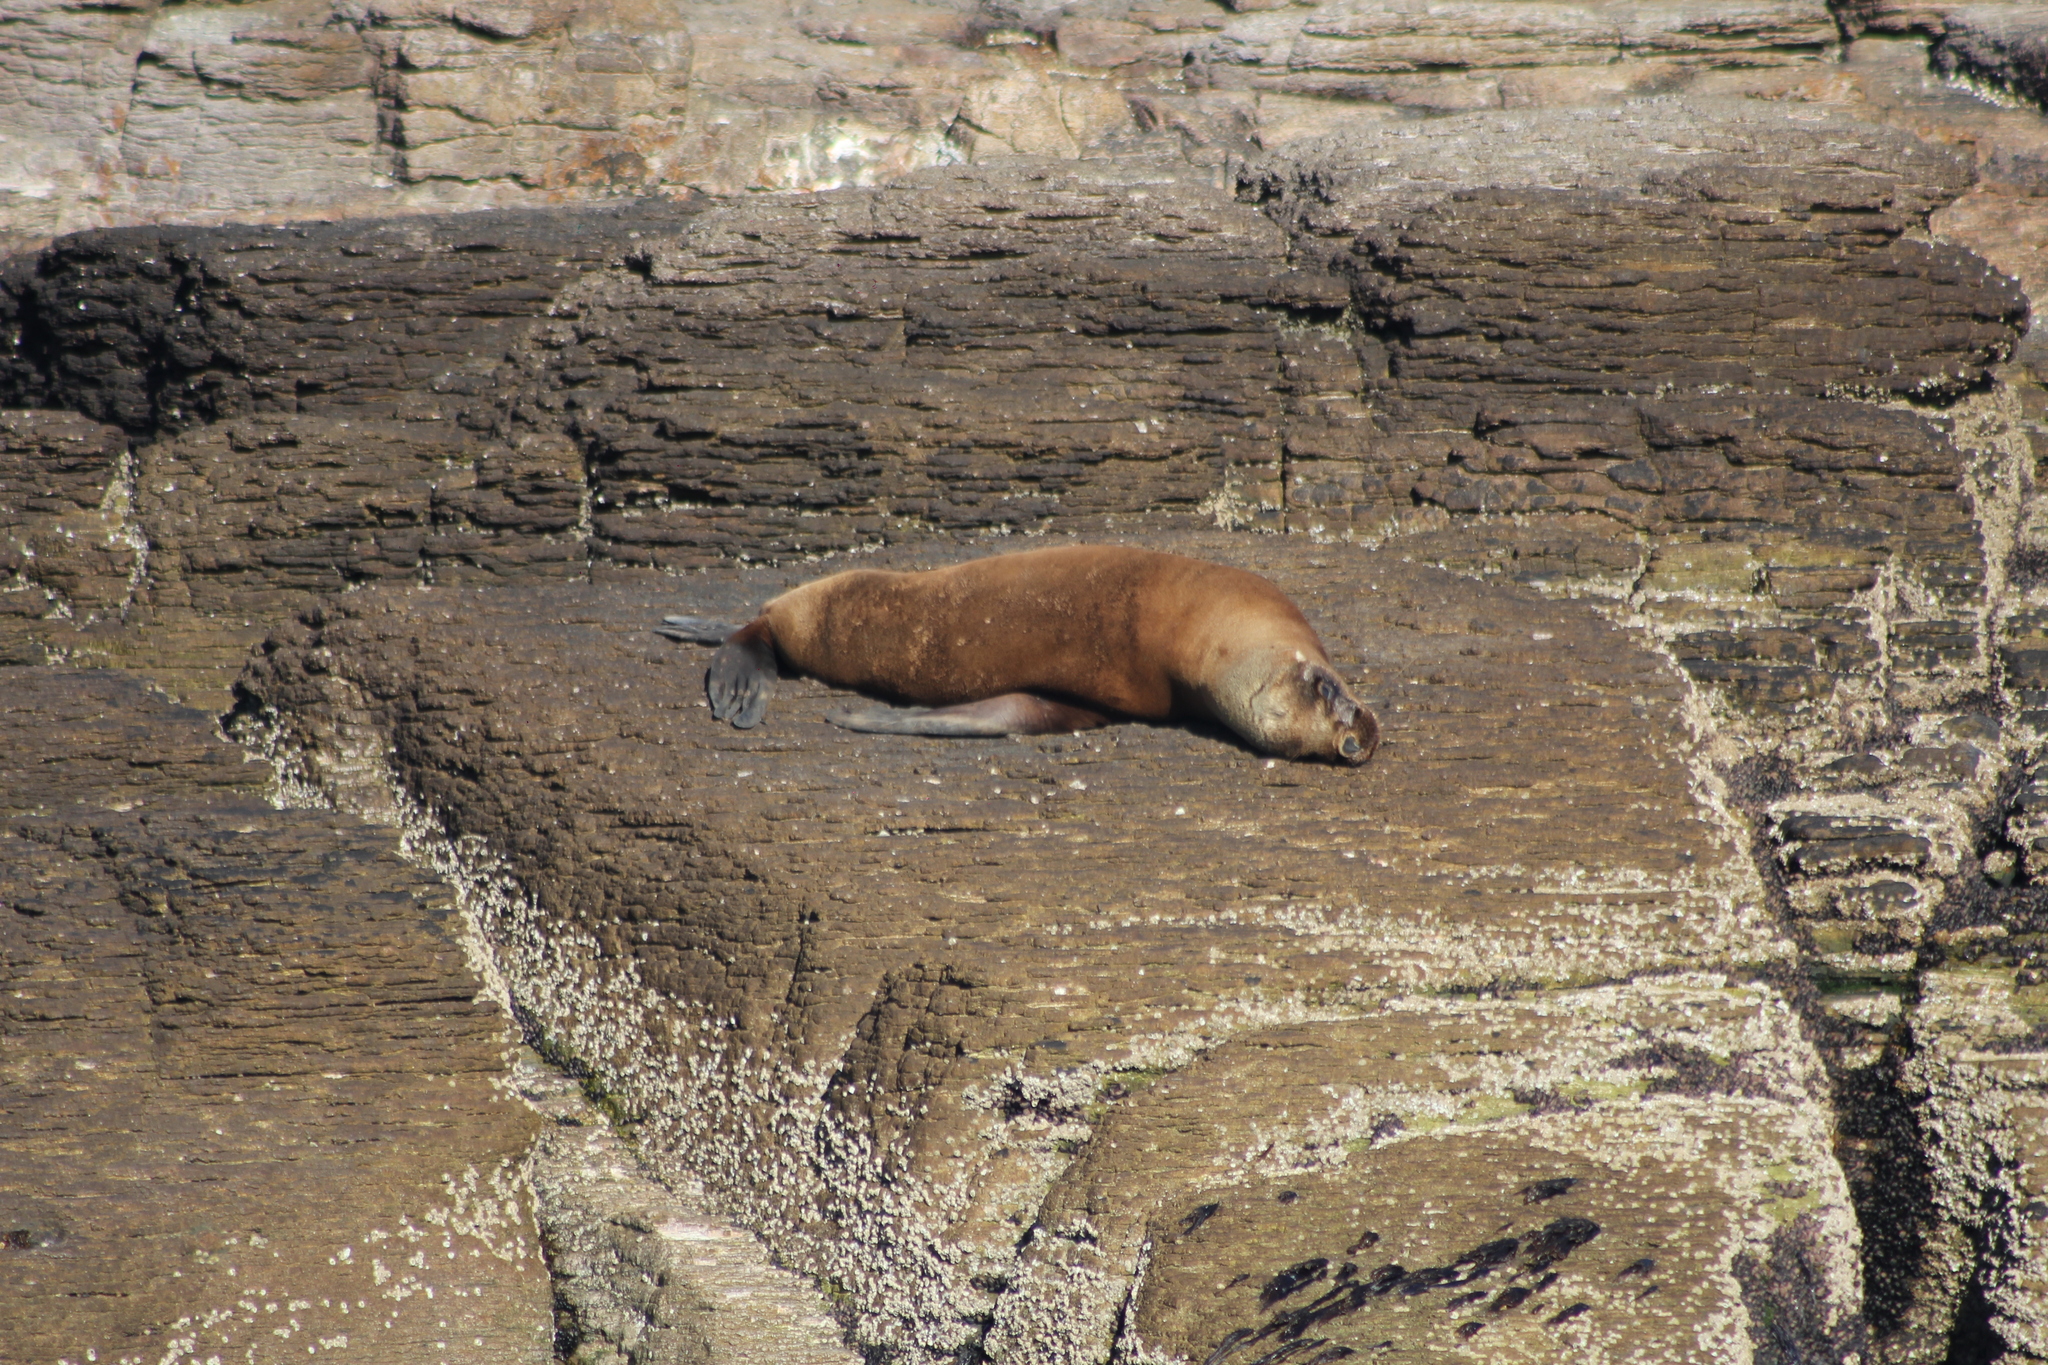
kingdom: Animalia
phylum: Chordata
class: Mammalia
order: Carnivora
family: Otariidae
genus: Otaria
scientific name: Otaria byronia
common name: South american sea lion
